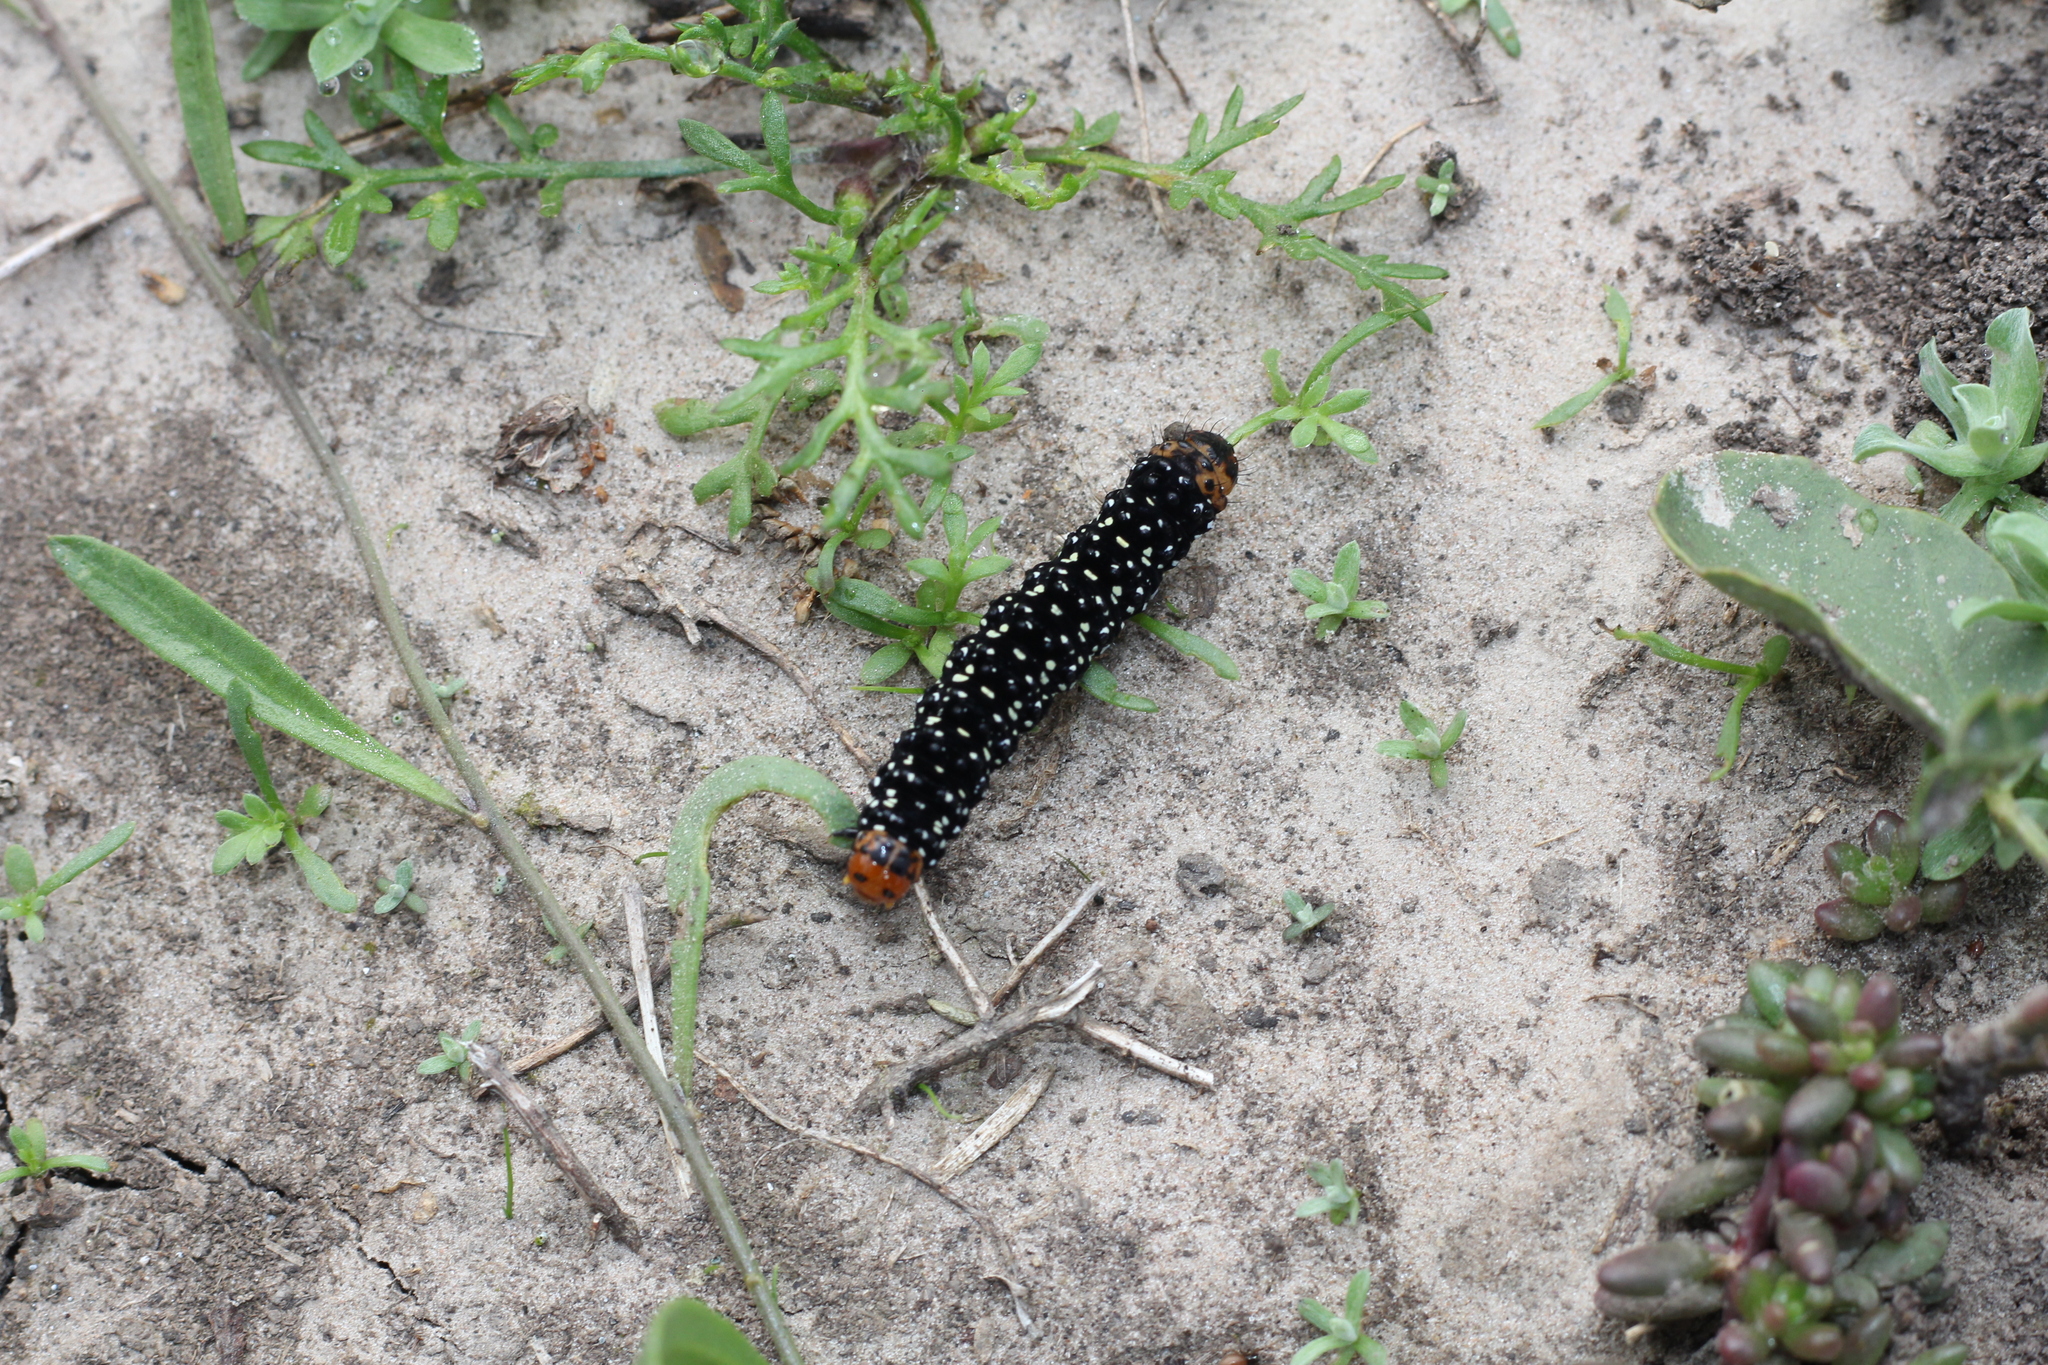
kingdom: Animalia
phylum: Arthropoda
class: Insecta
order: Lepidoptera
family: Noctuidae
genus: Xanthopastis
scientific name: Xanthopastis timais
